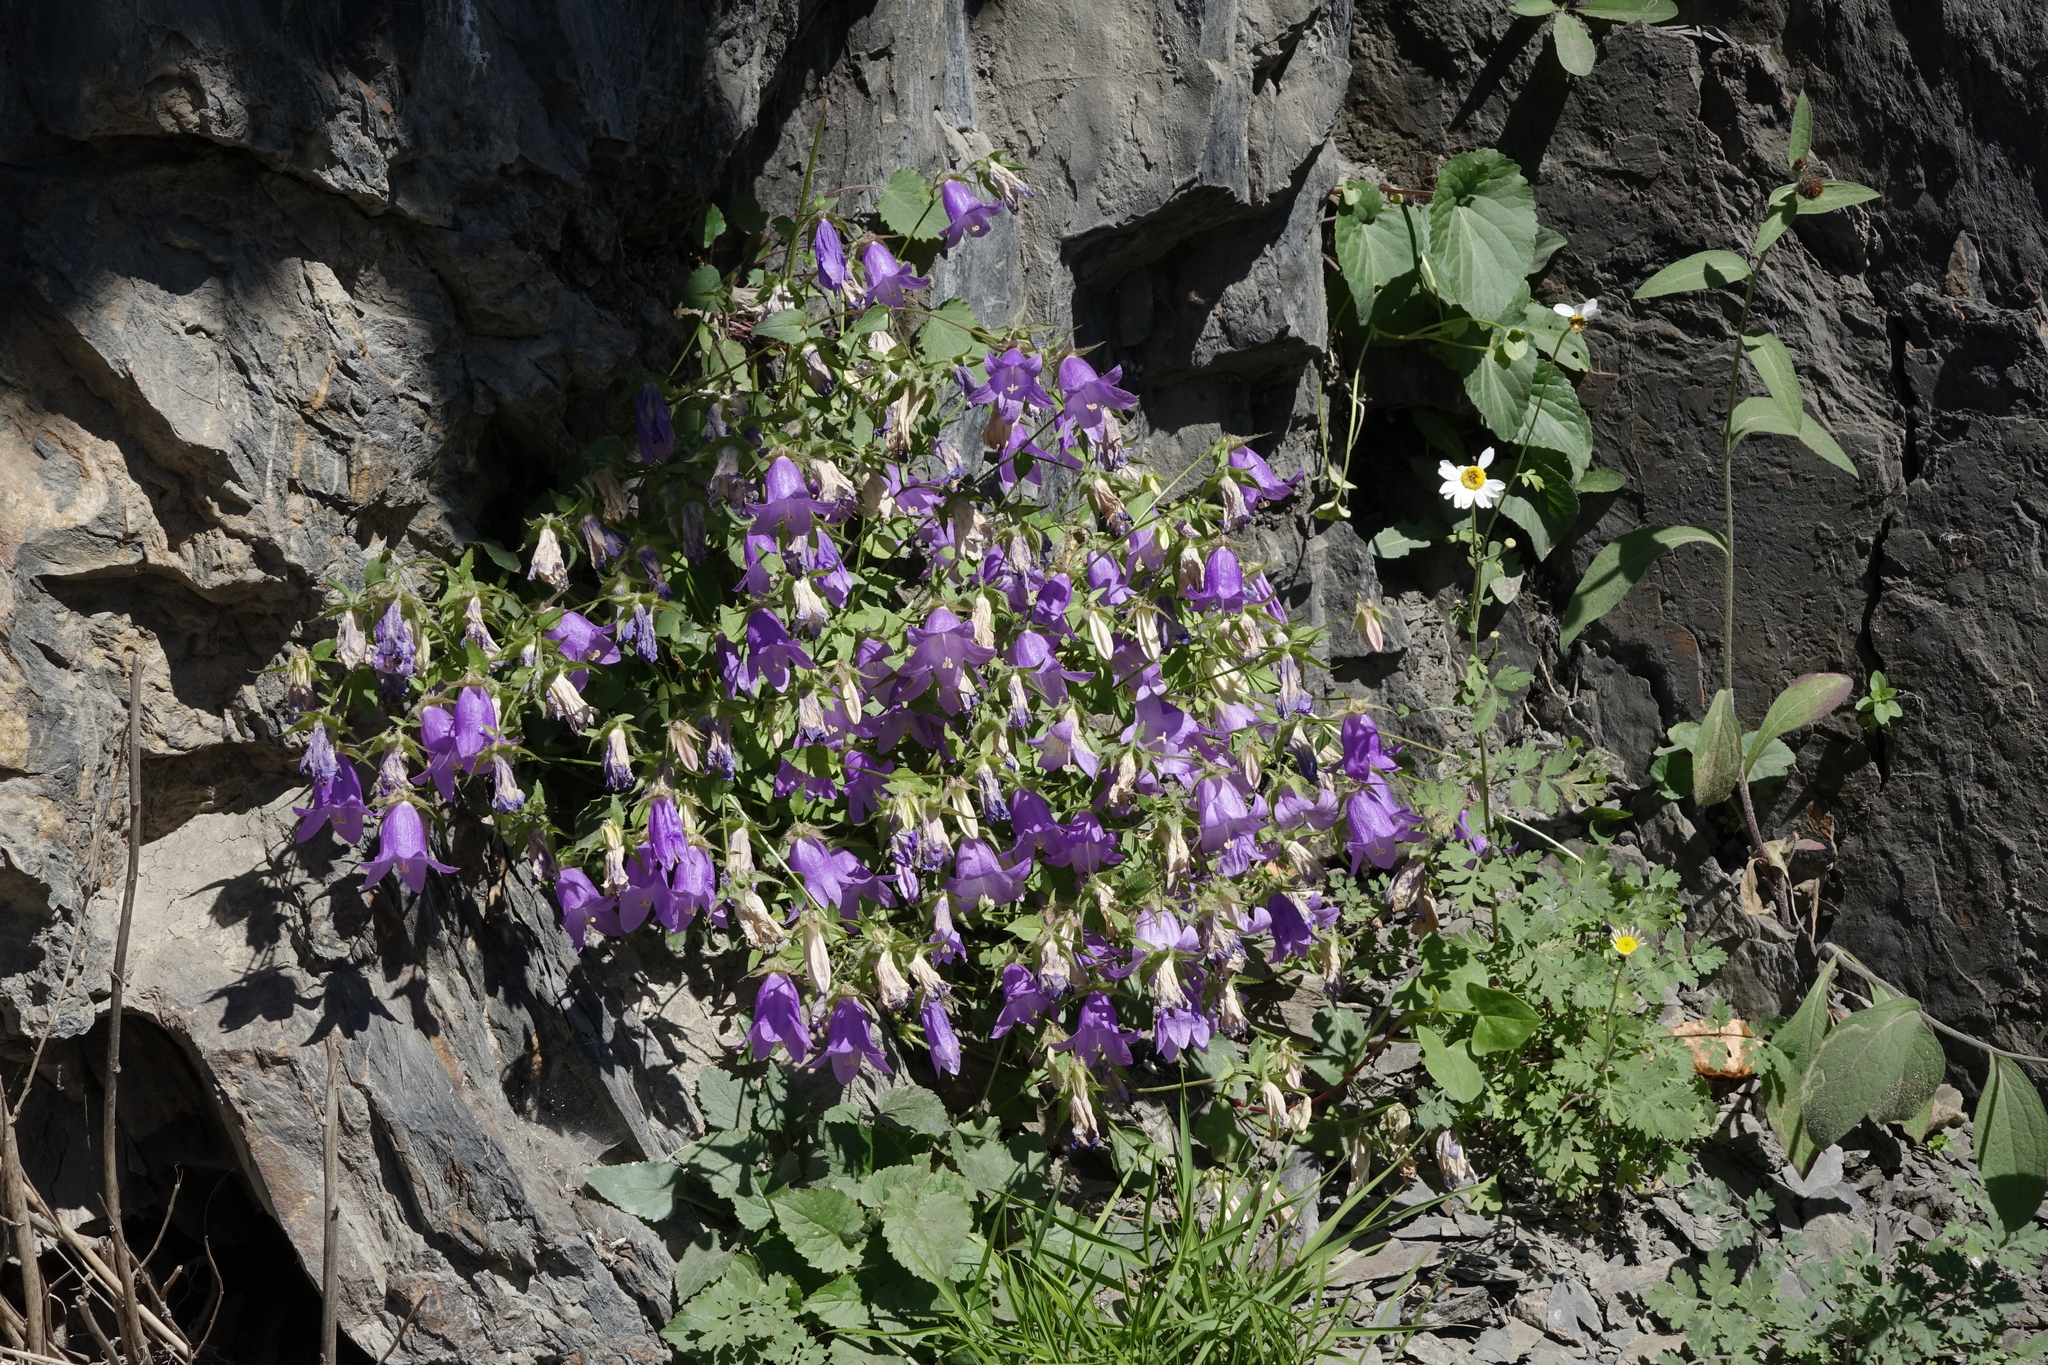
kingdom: Plantae
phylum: Tracheophyta
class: Magnoliopsida
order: Asterales
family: Campanulaceae
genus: Campanula
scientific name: Campanula kolenatiana
